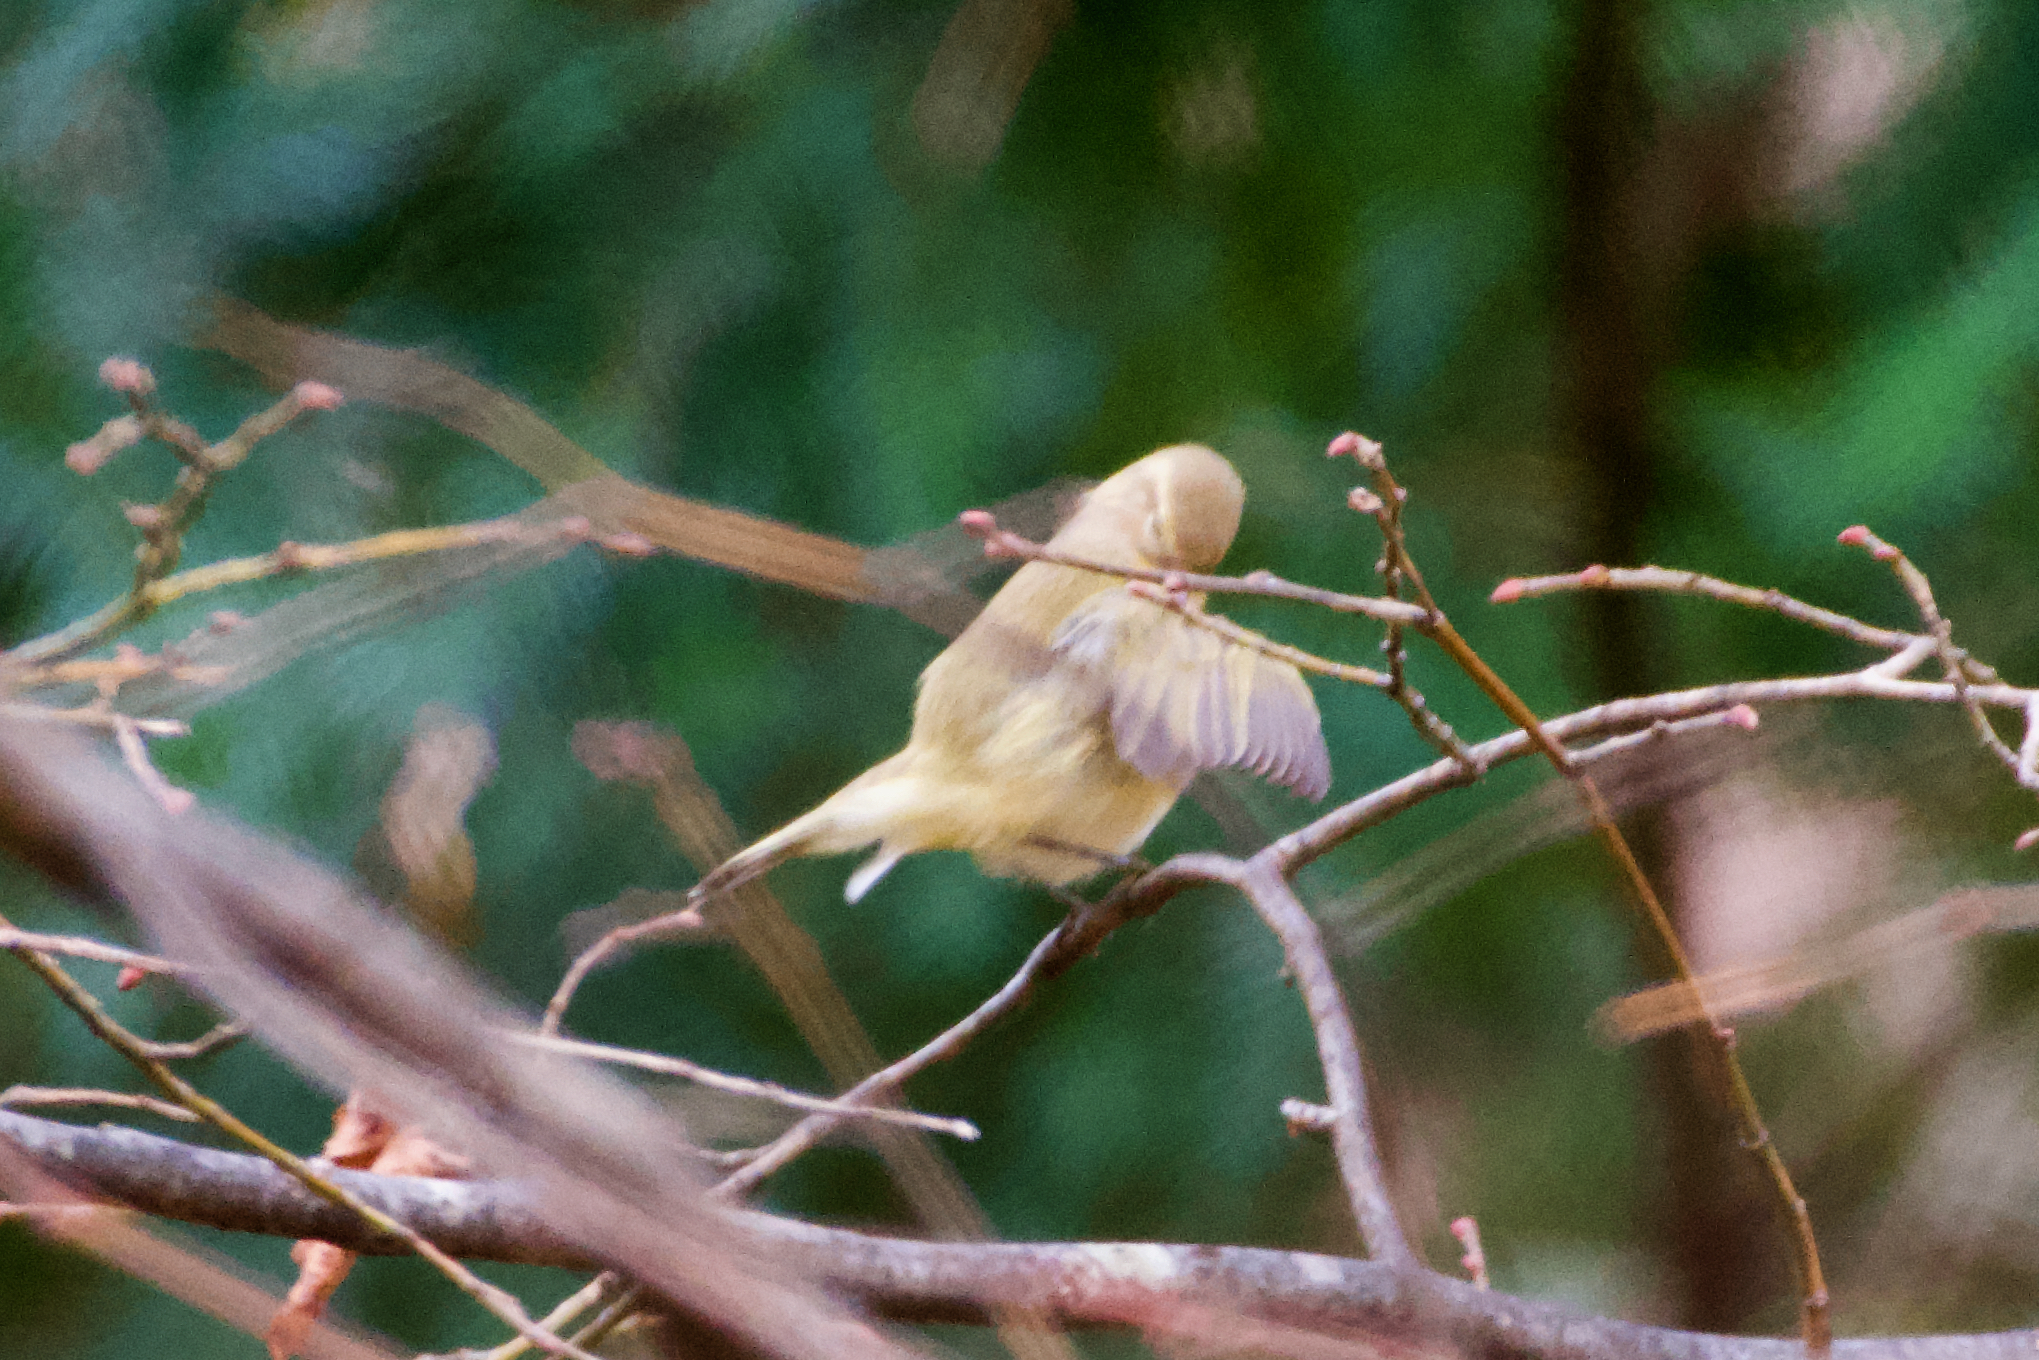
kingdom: Animalia
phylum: Chordata
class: Aves
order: Passeriformes
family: Phylloscopidae
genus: Phylloscopus
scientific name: Phylloscopus collybita
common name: Common chiffchaff
